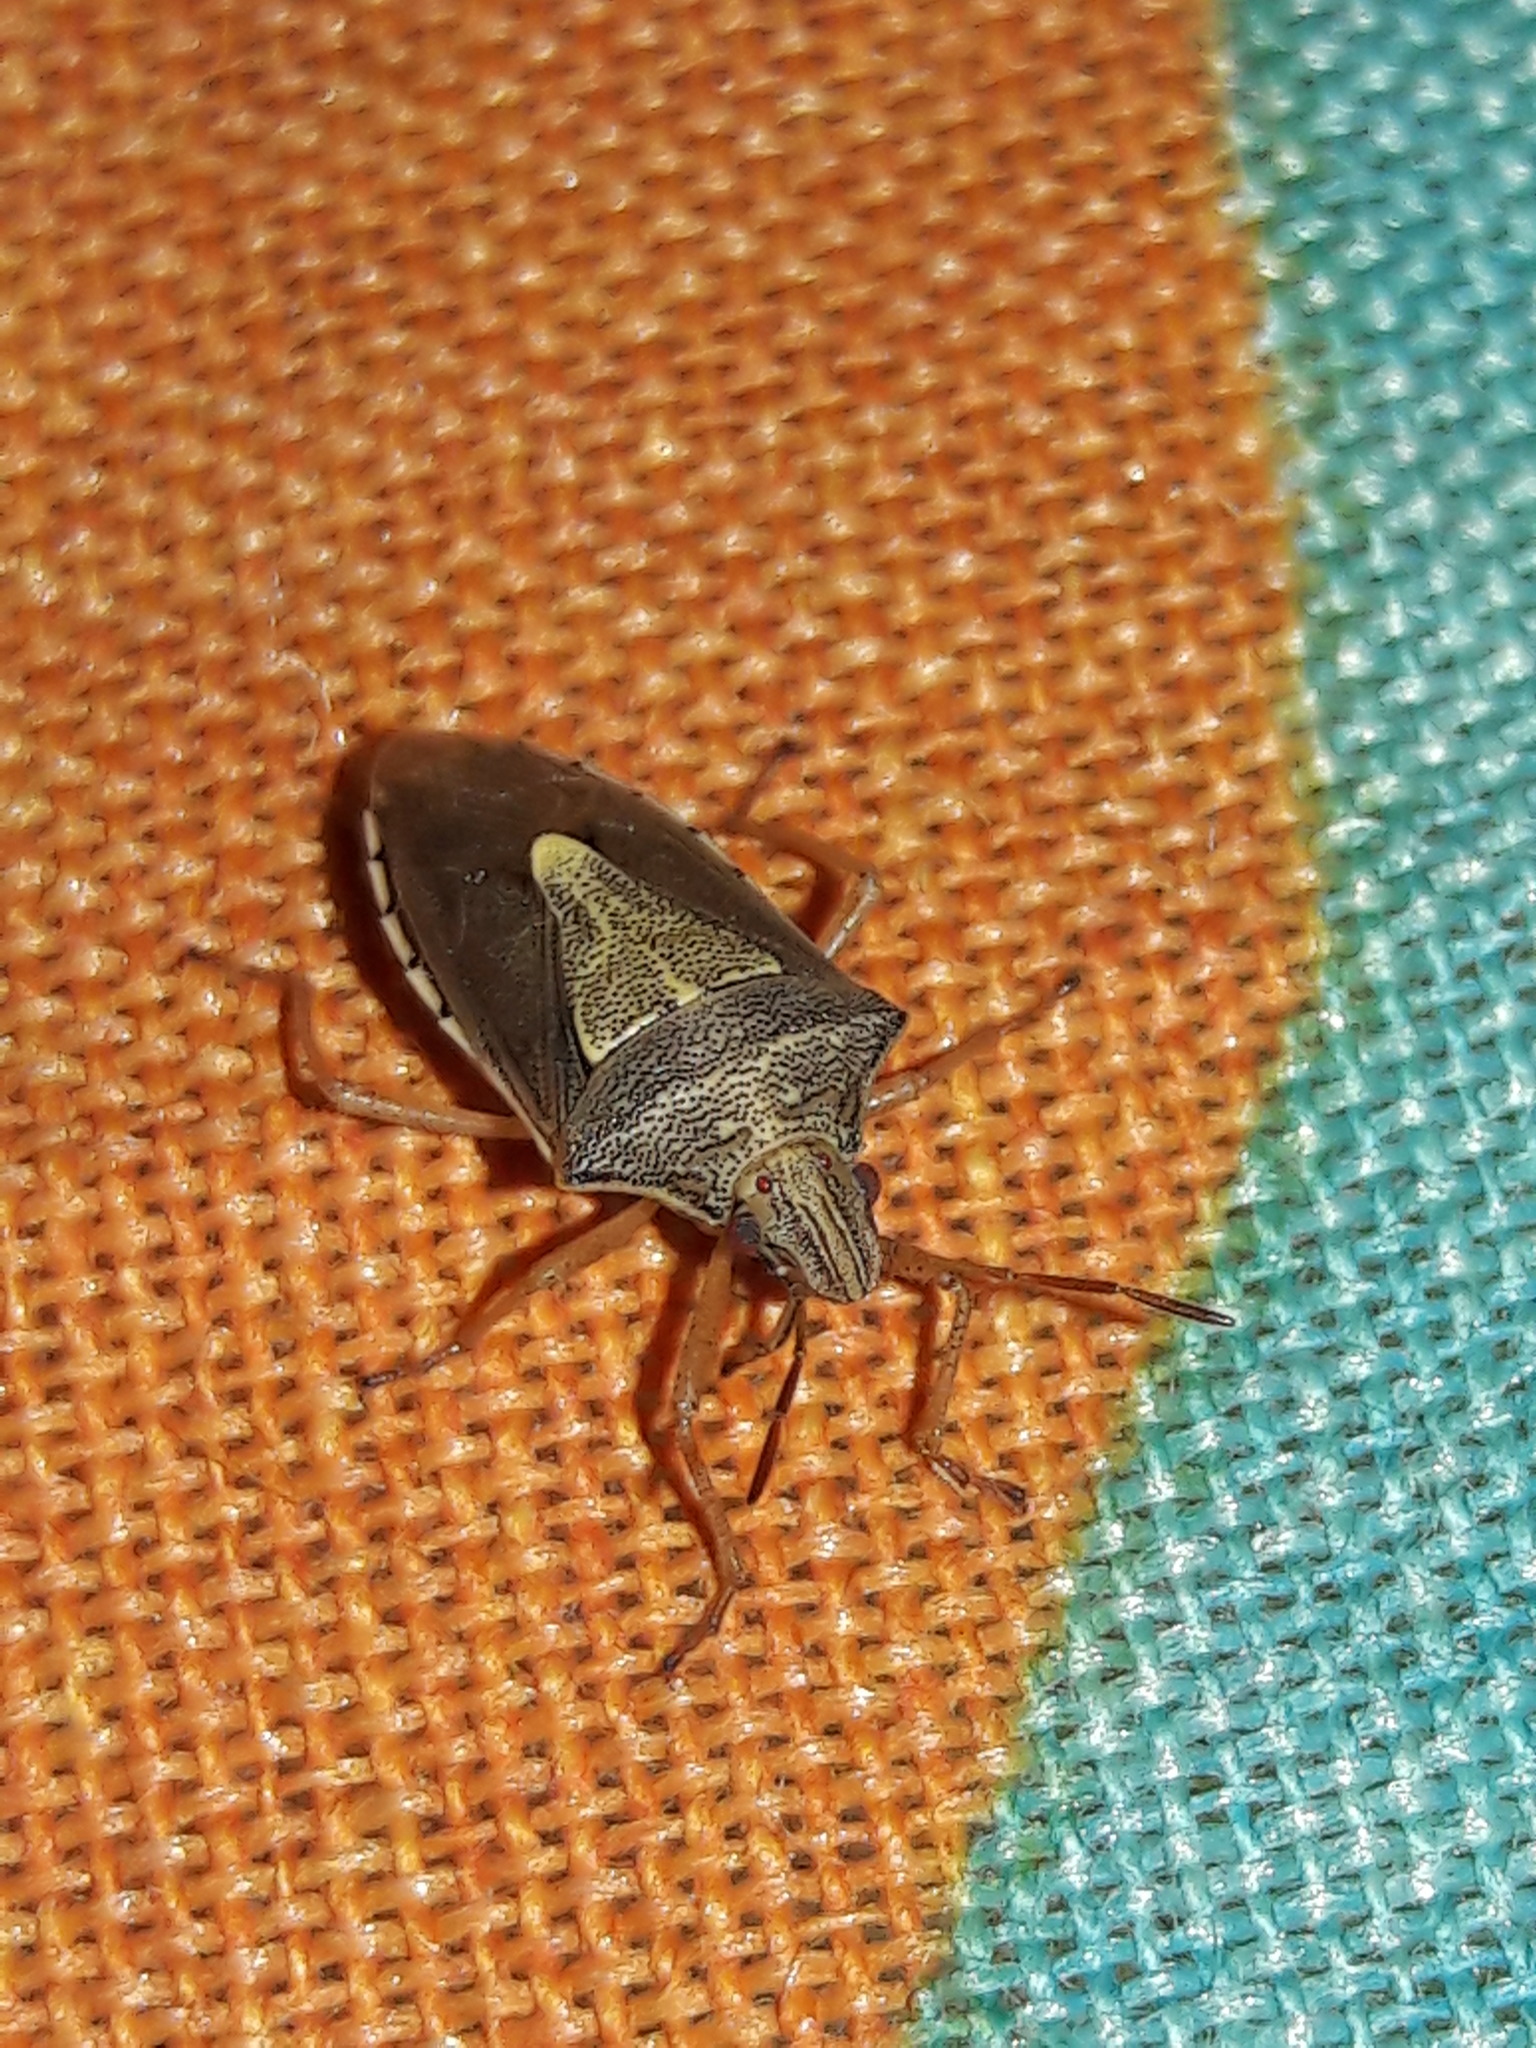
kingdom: Animalia
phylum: Arthropoda
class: Insecta
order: Hemiptera
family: Pentatomidae
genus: Oebalus
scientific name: Oebalus ypsilongriseus
